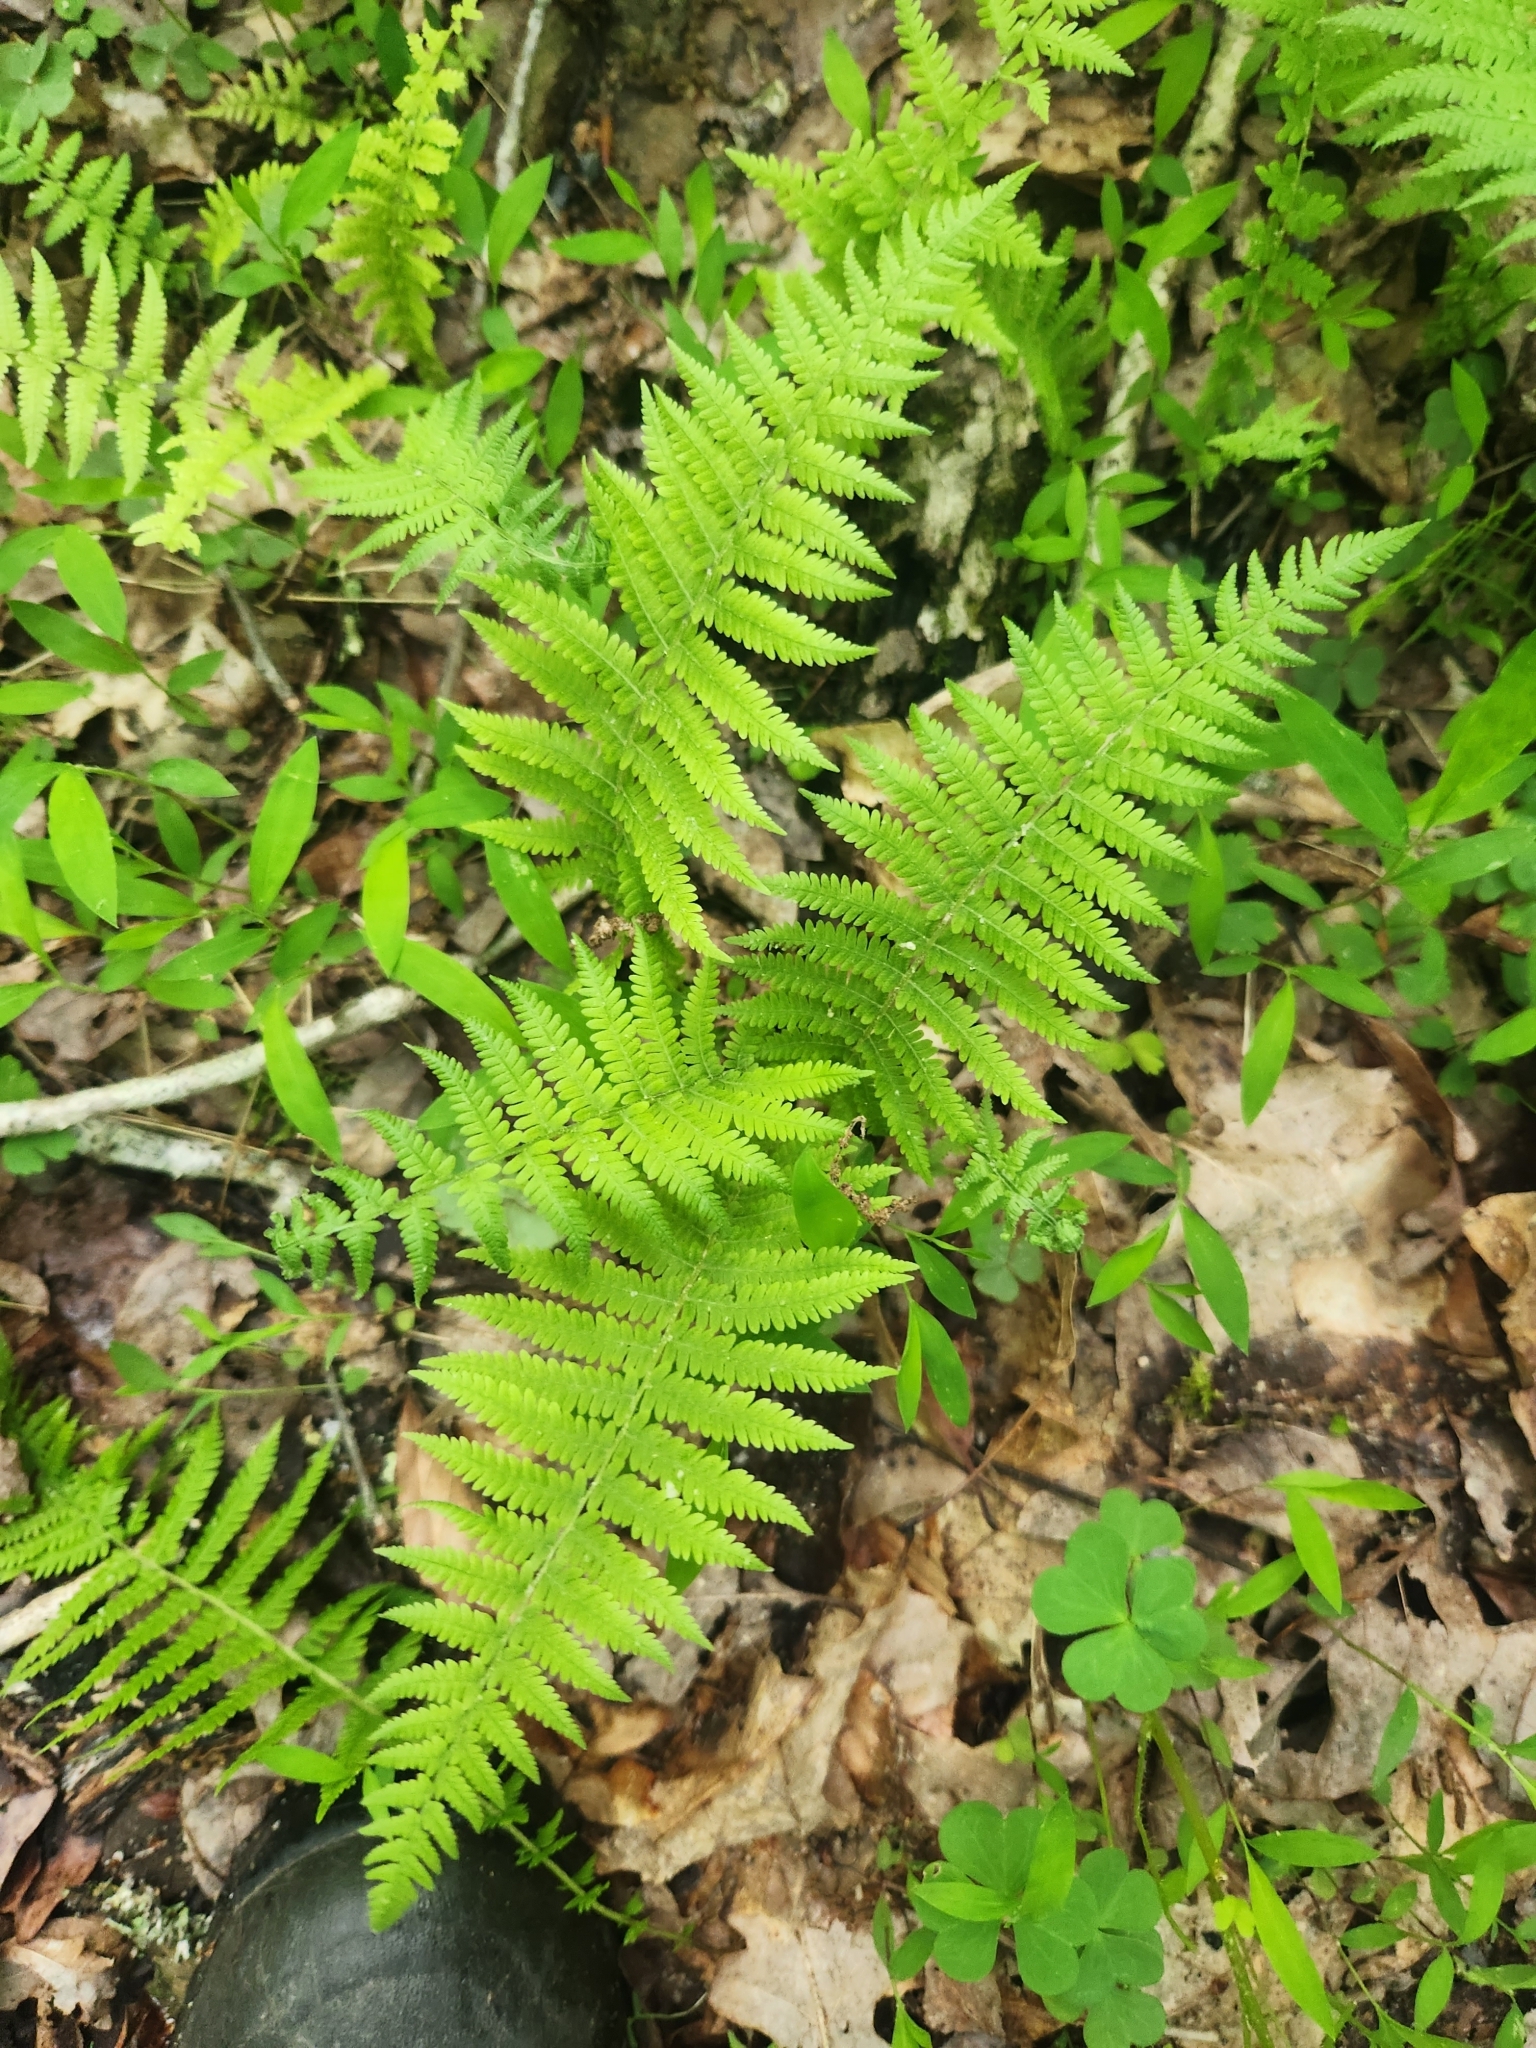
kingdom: Plantae
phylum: Tracheophyta
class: Polypodiopsida
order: Polypodiales
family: Thelypteridaceae
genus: Amauropelta
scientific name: Amauropelta noveboracensis
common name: New york fern
